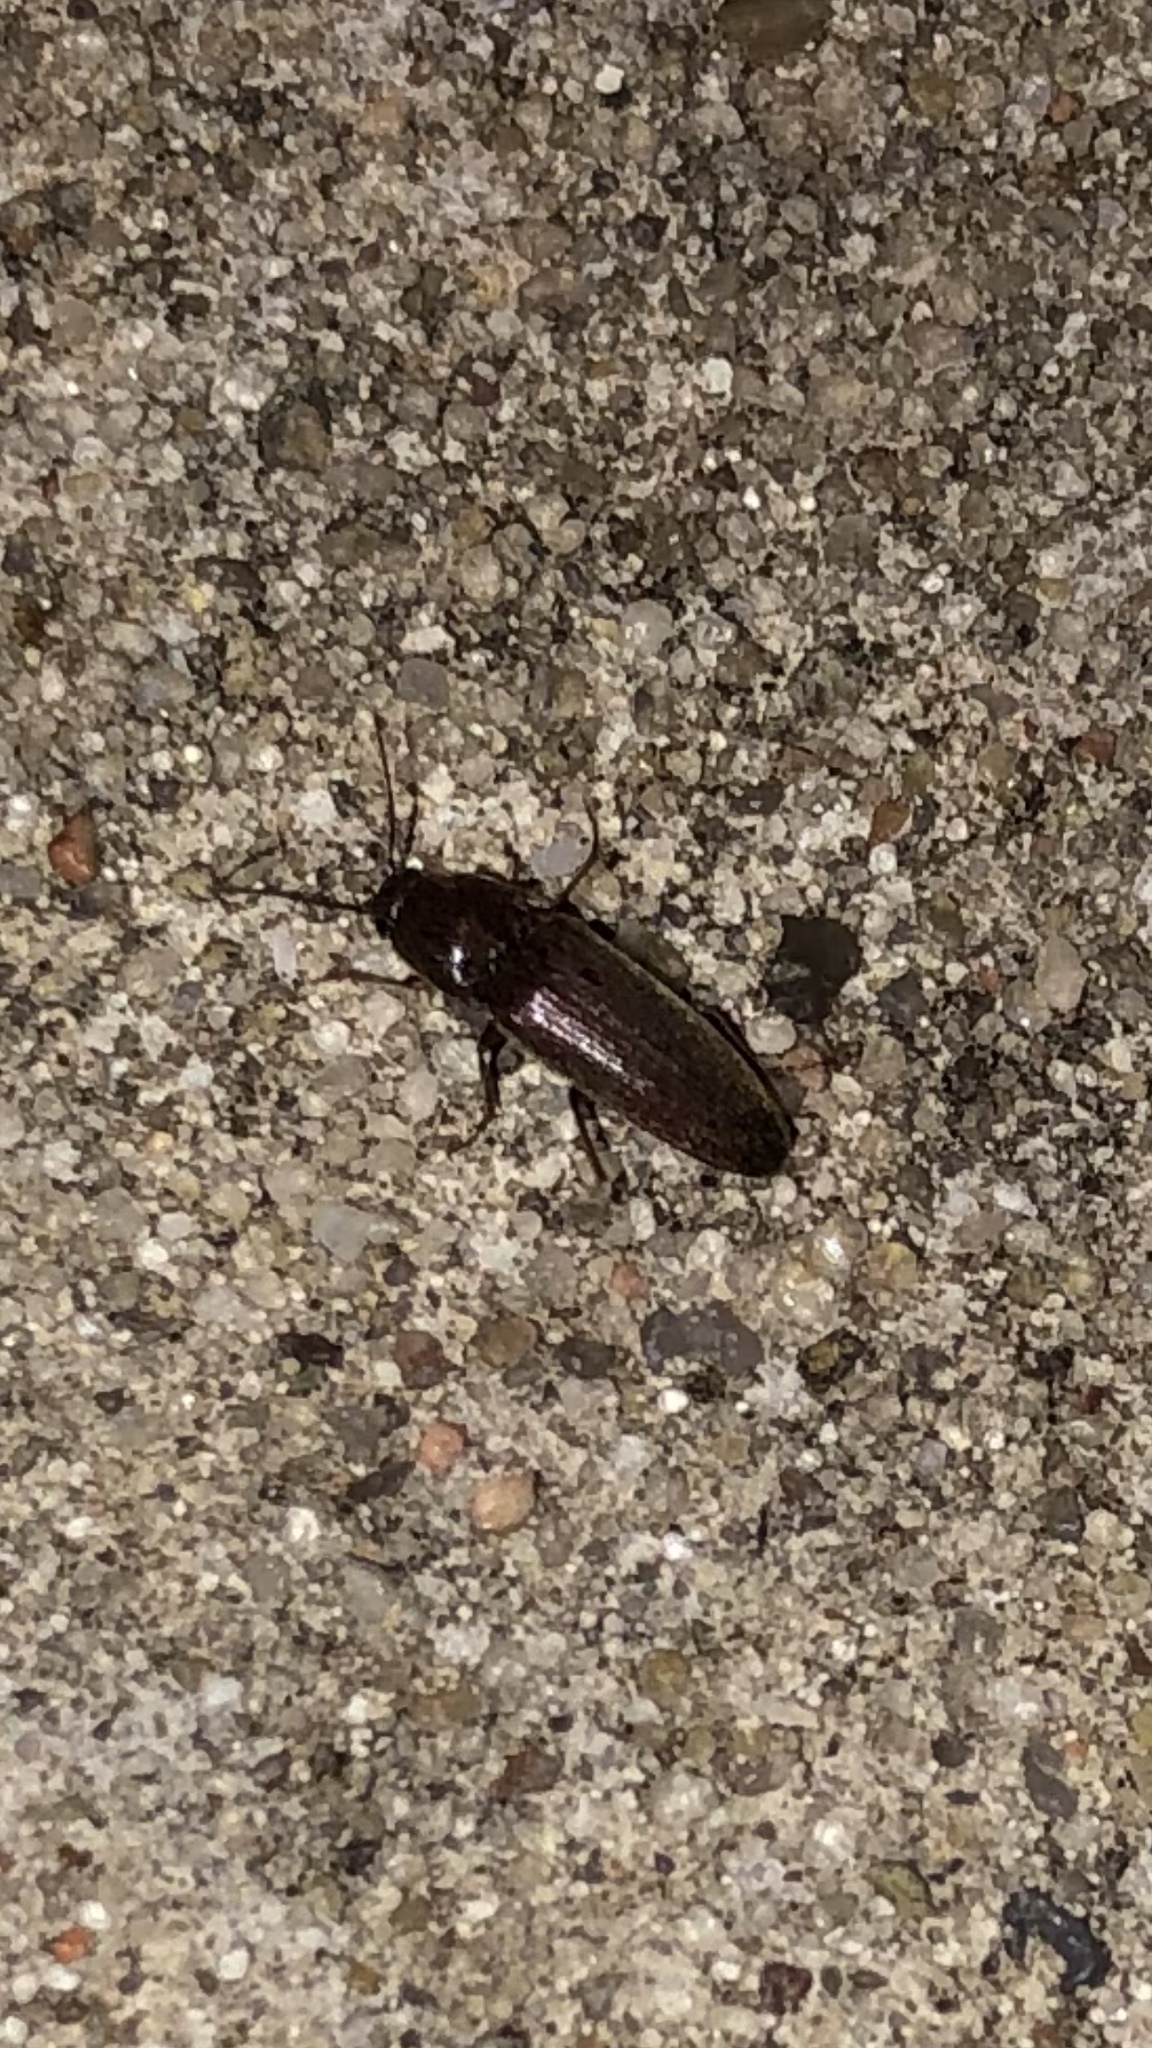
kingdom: Animalia
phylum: Arthropoda
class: Insecta
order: Coleoptera
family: Elateridae
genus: Melanotus
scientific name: Melanotus
